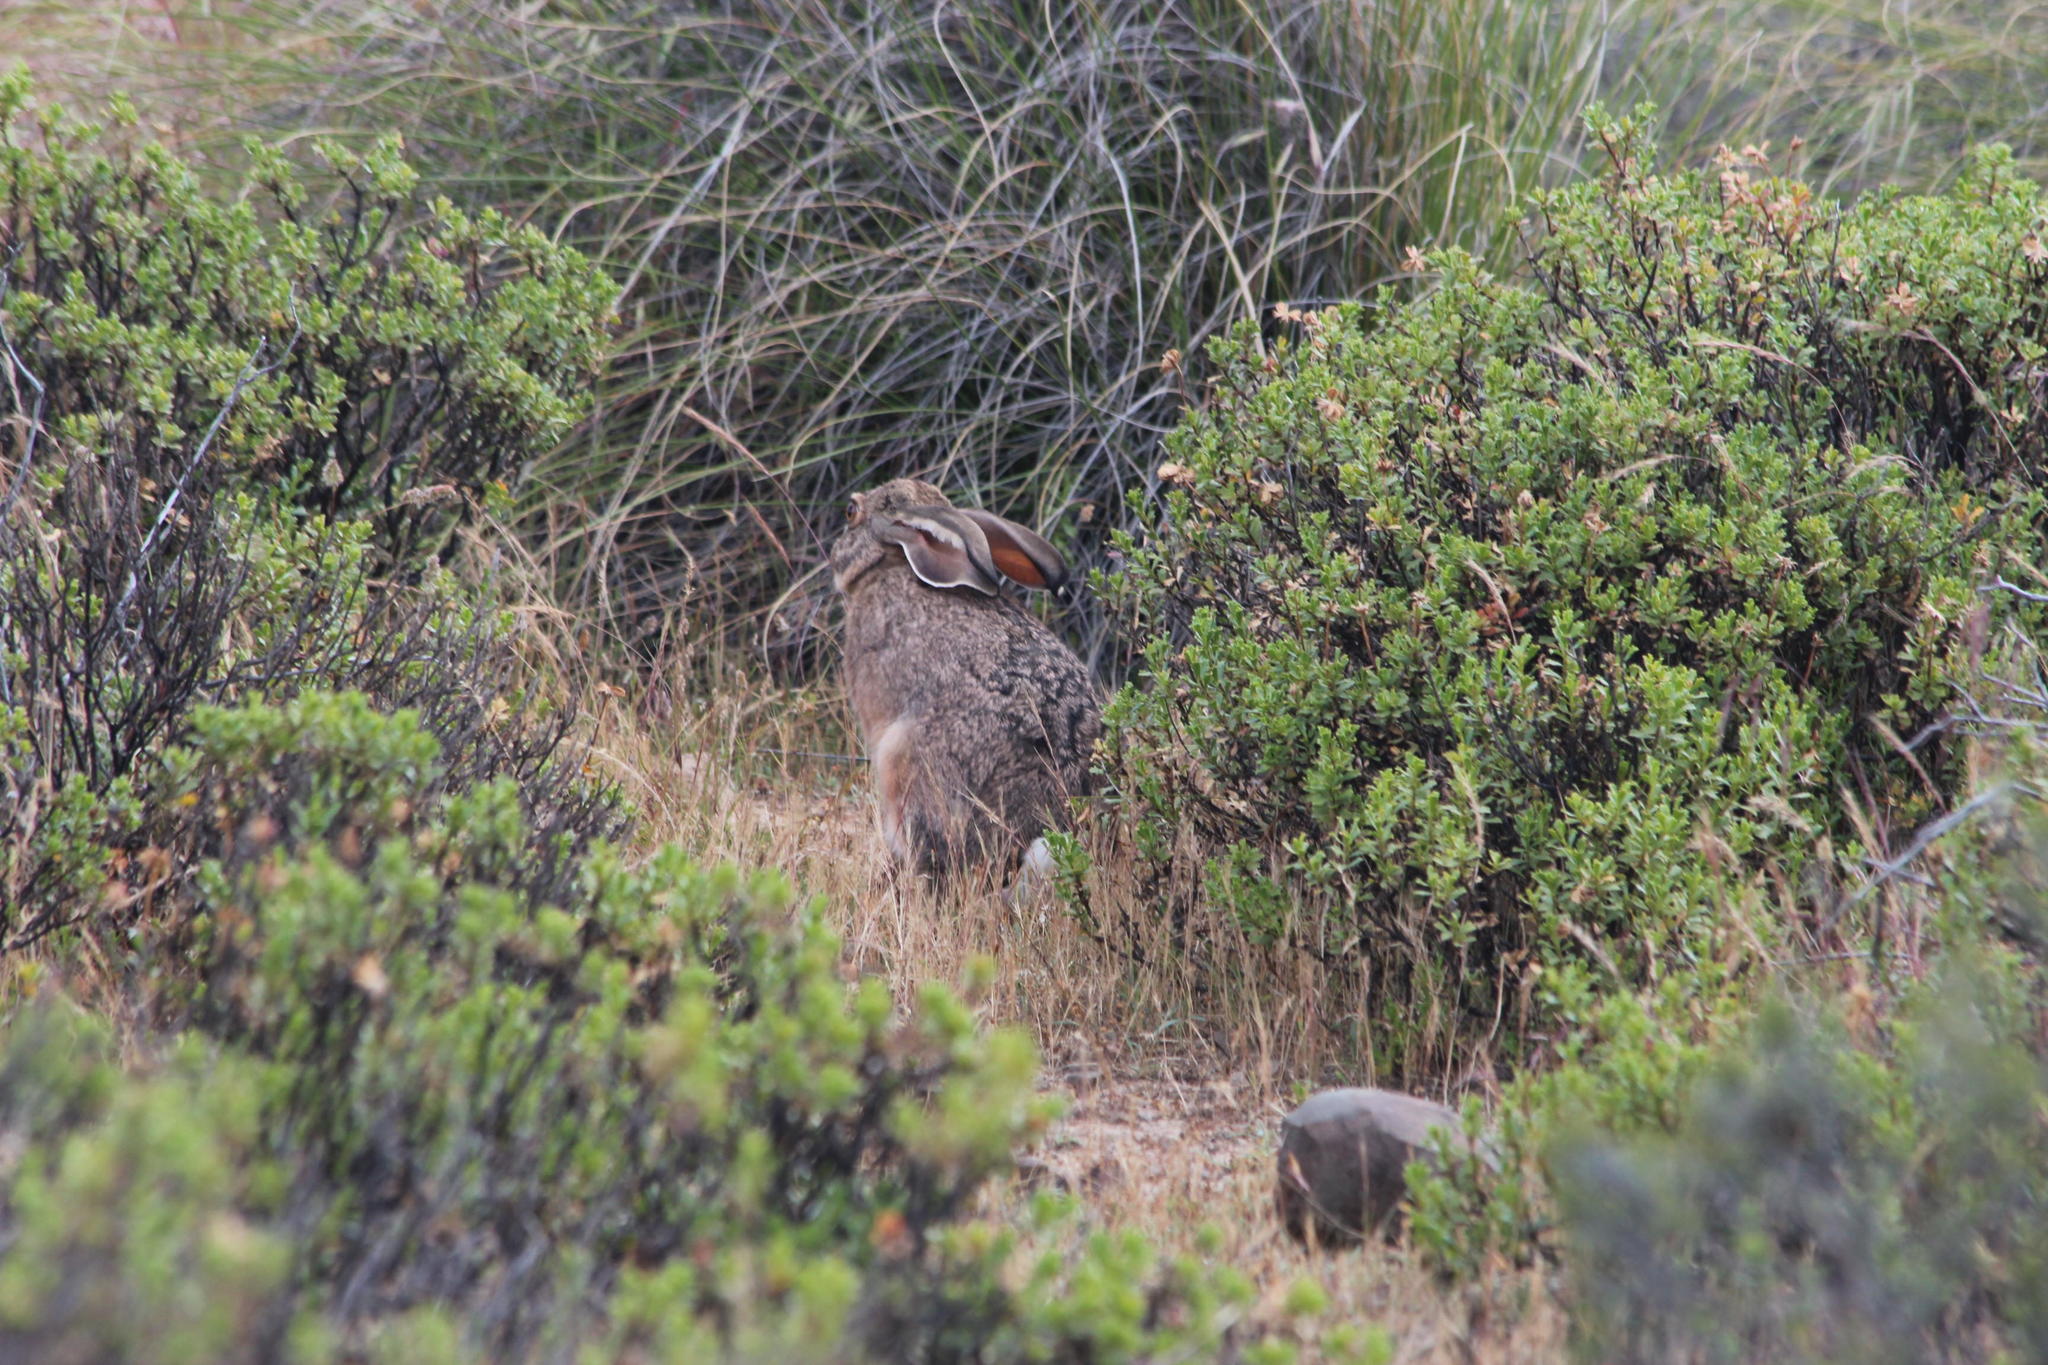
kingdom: Animalia
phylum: Chordata
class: Mammalia
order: Lagomorpha
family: Leporidae
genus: Lepus
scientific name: Lepus saxatilis
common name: Scrub hare
